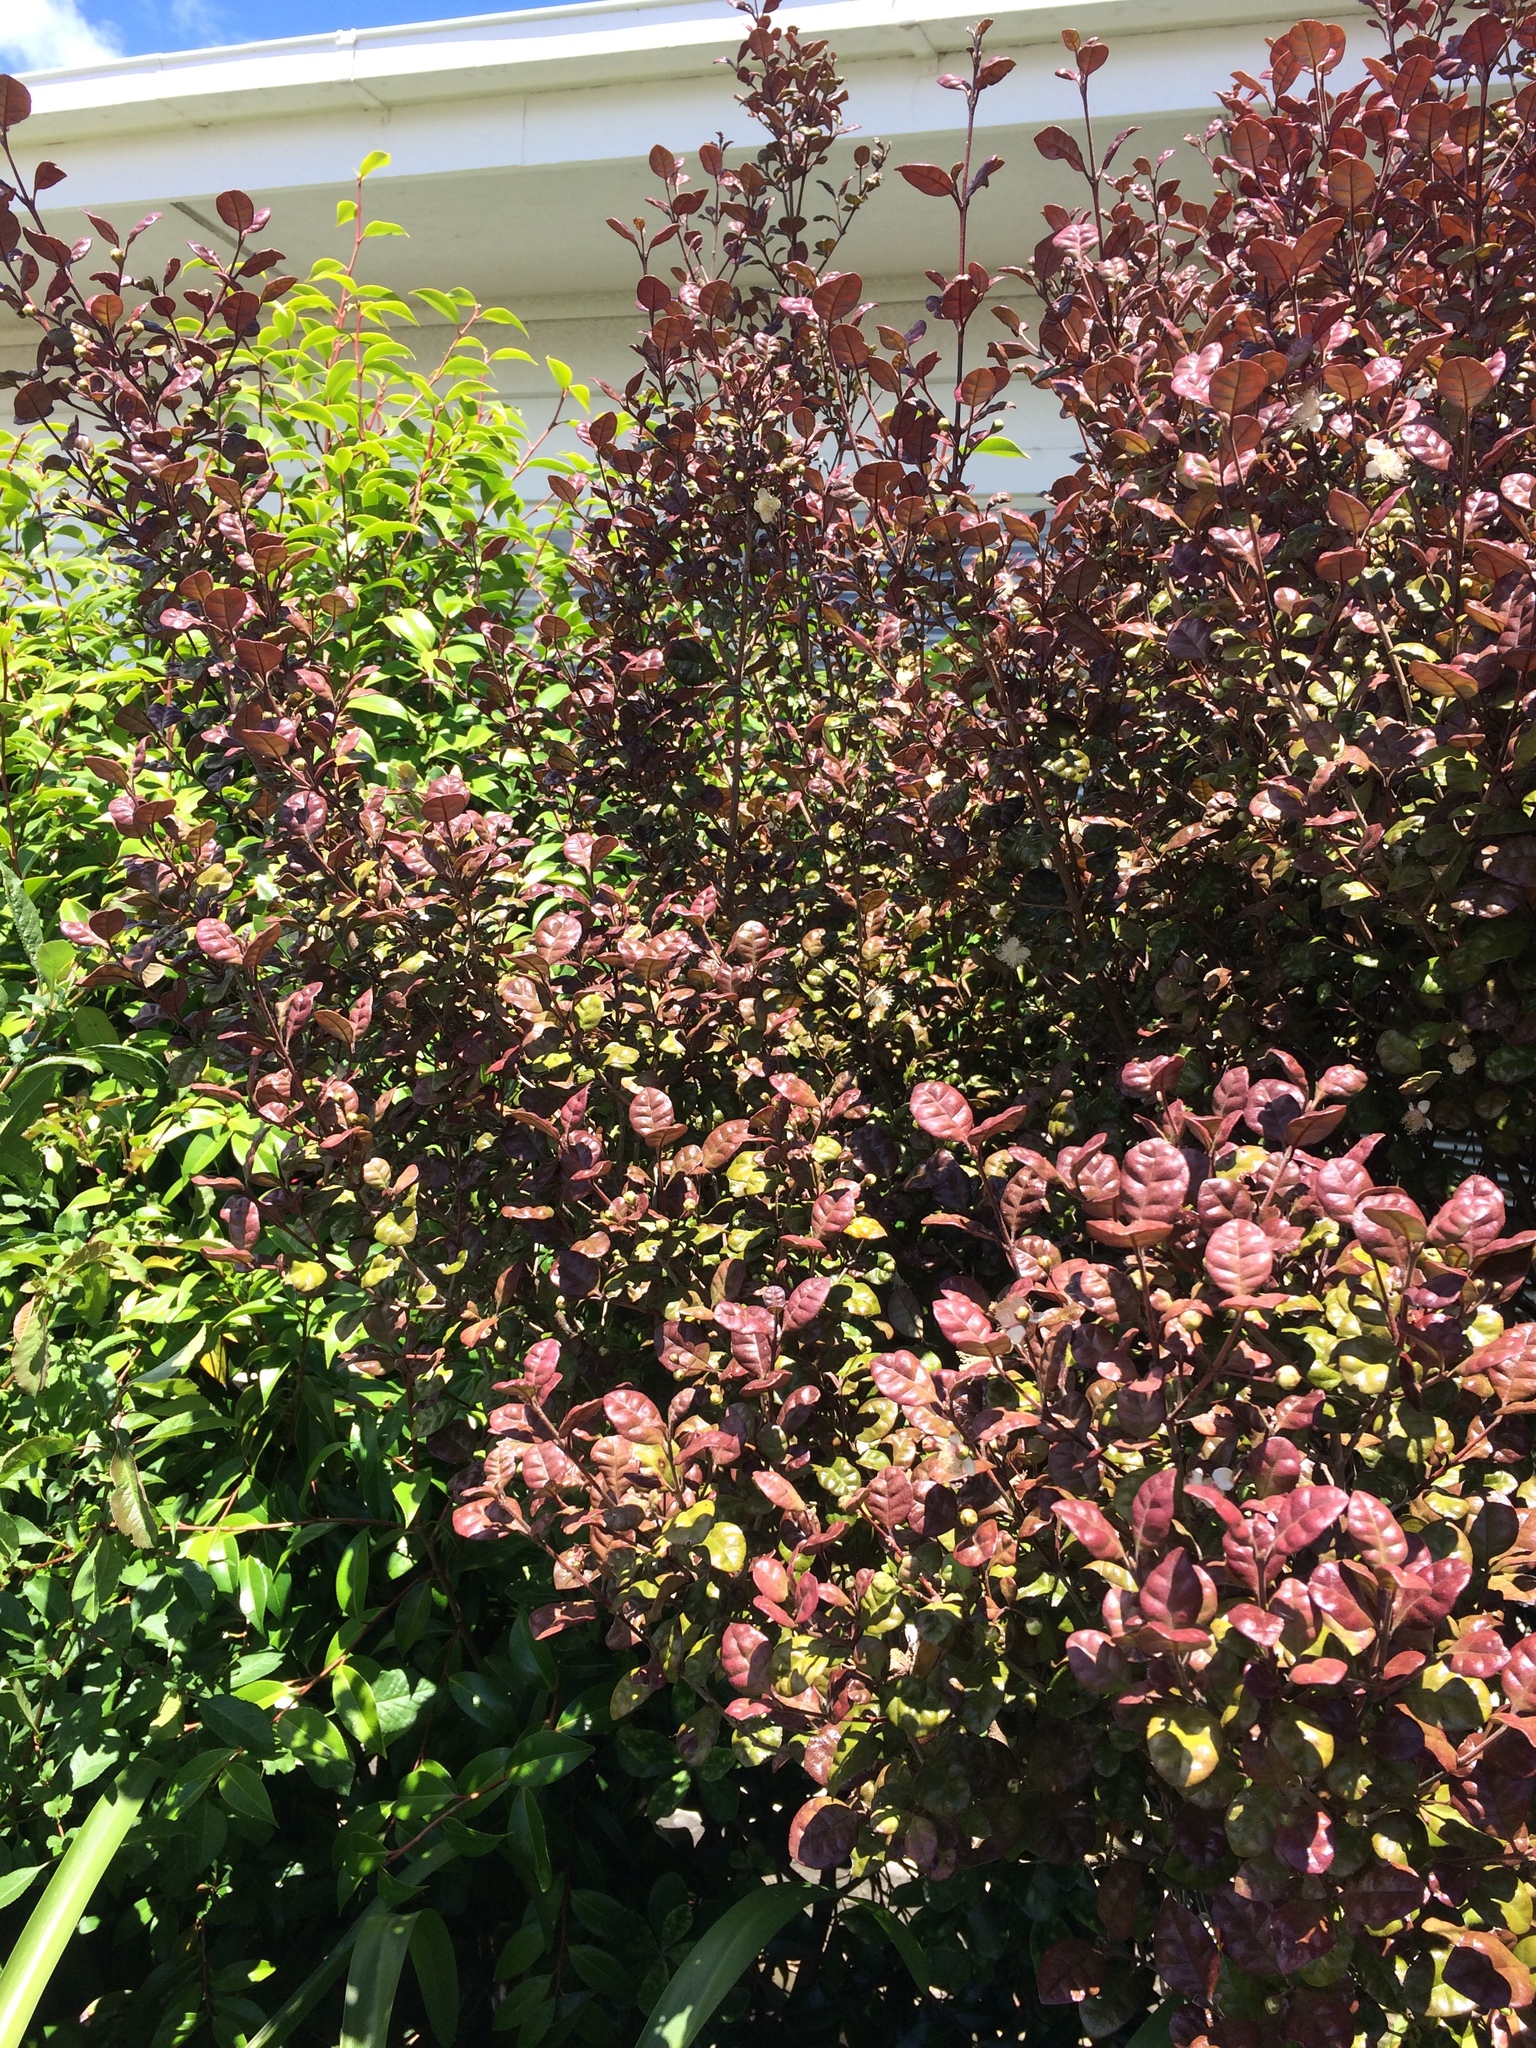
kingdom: Plantae
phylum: Tracheophyta
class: Magnoliopsida
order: Myrtales
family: Myrtaceae
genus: Lophomyrtus
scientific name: Lophomyrtus bullata
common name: Rama rama
